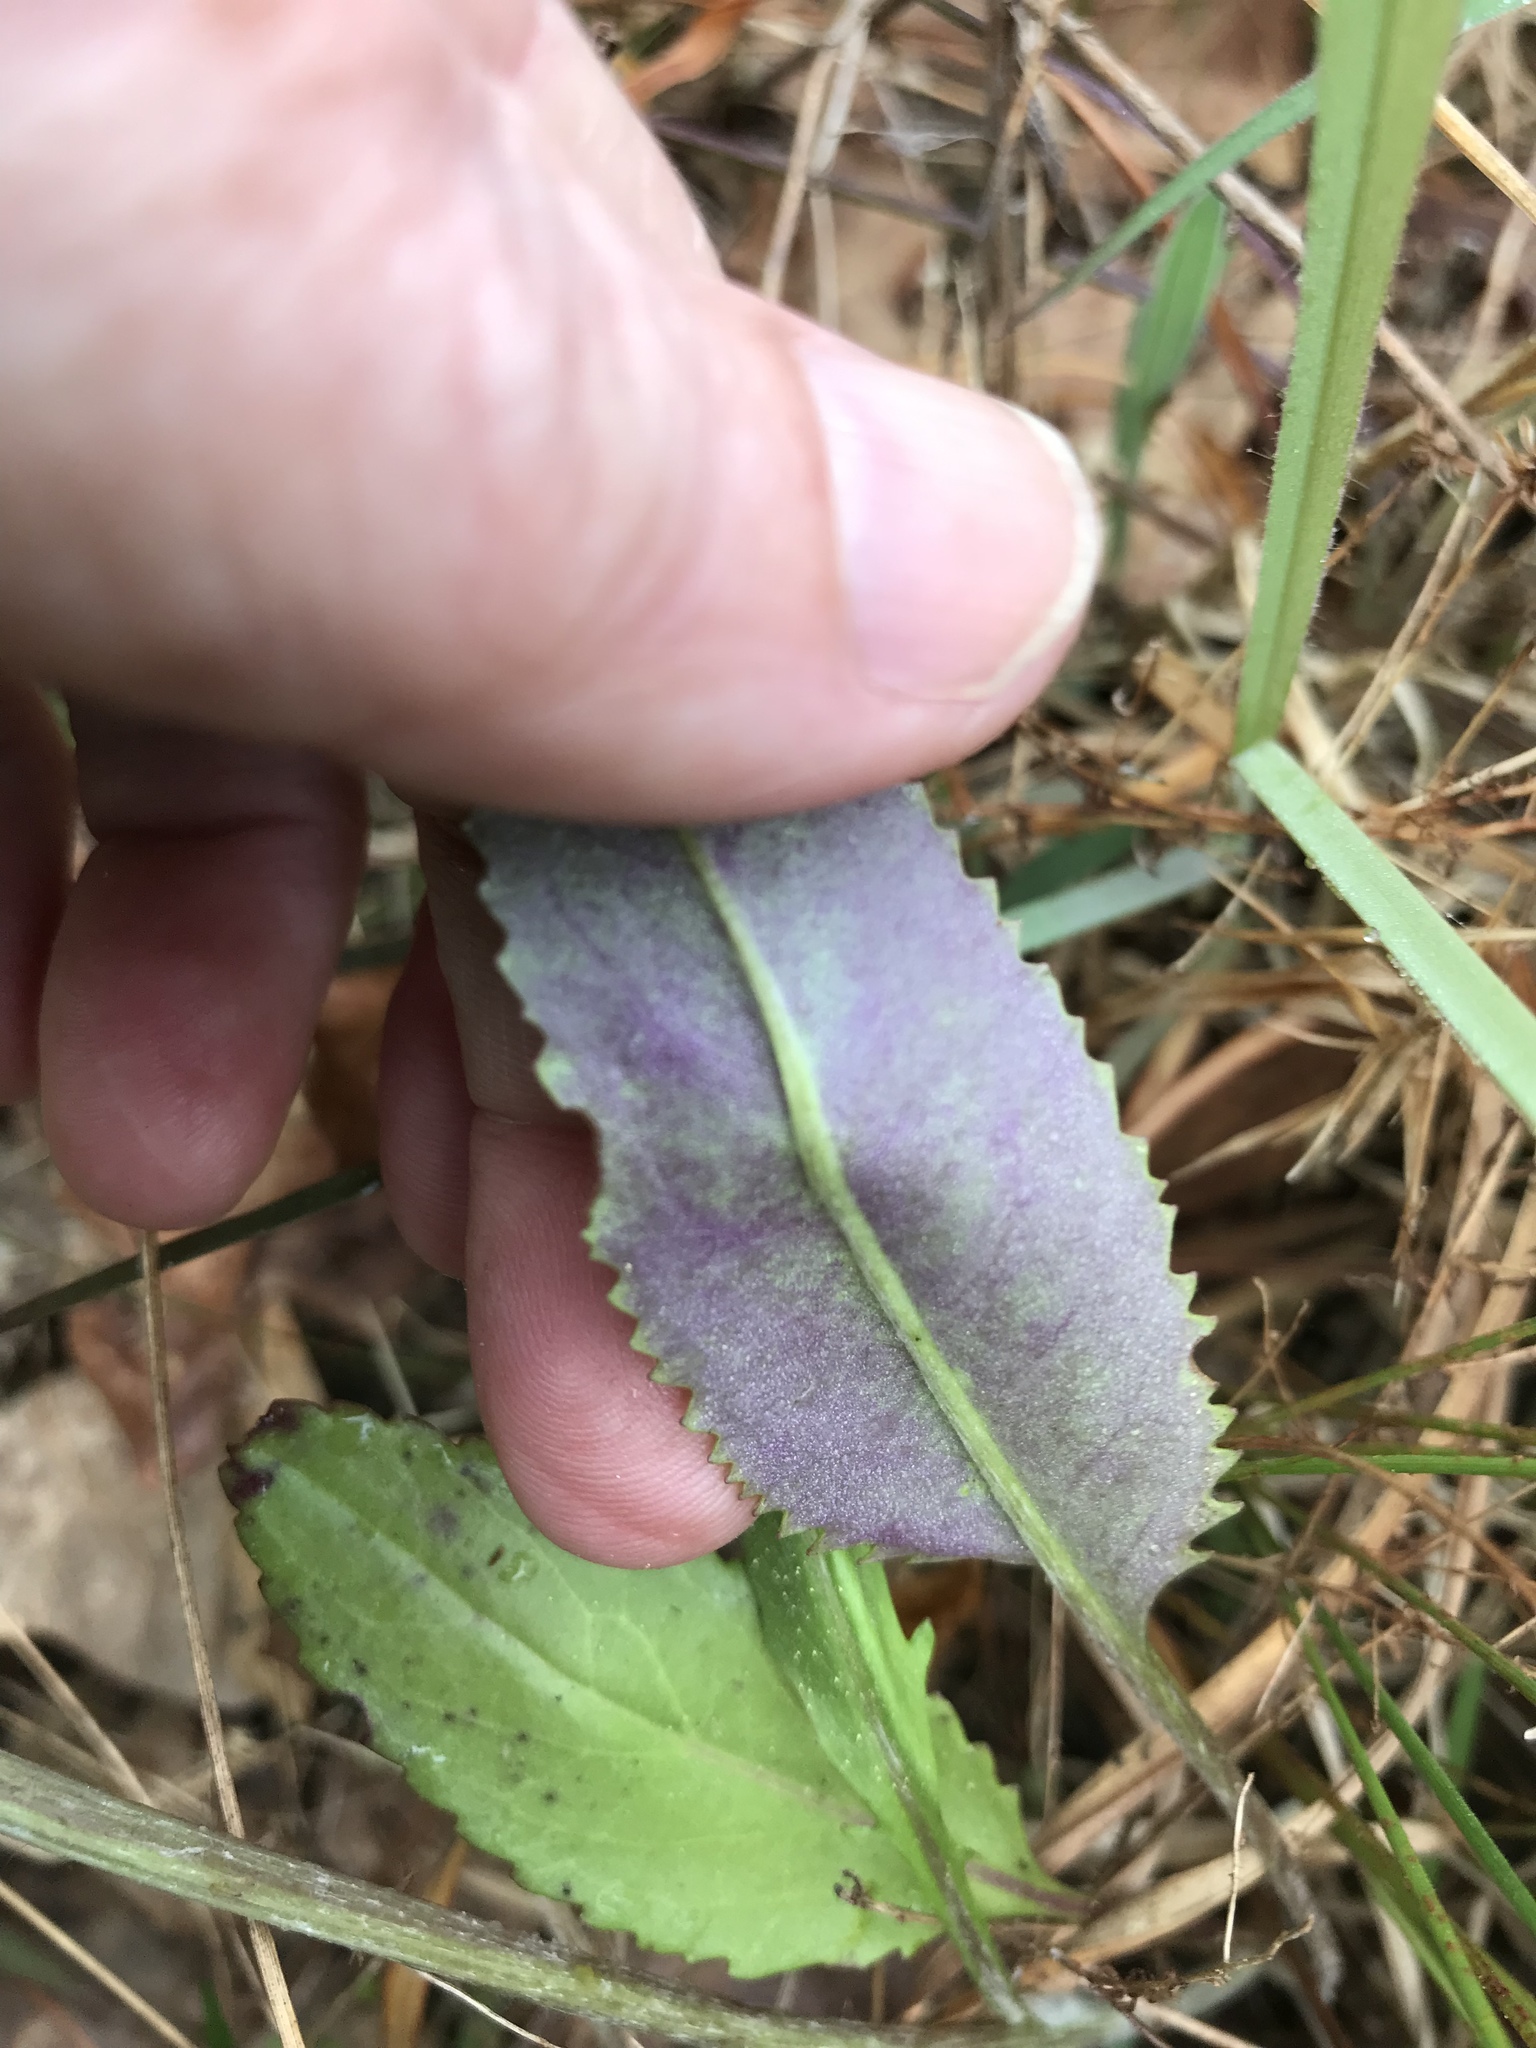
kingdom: Plantae
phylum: Tracheophyta
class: Magnoliopsida
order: Asterales
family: Asteraceae
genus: Senecio
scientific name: Senecio ampullaceus
